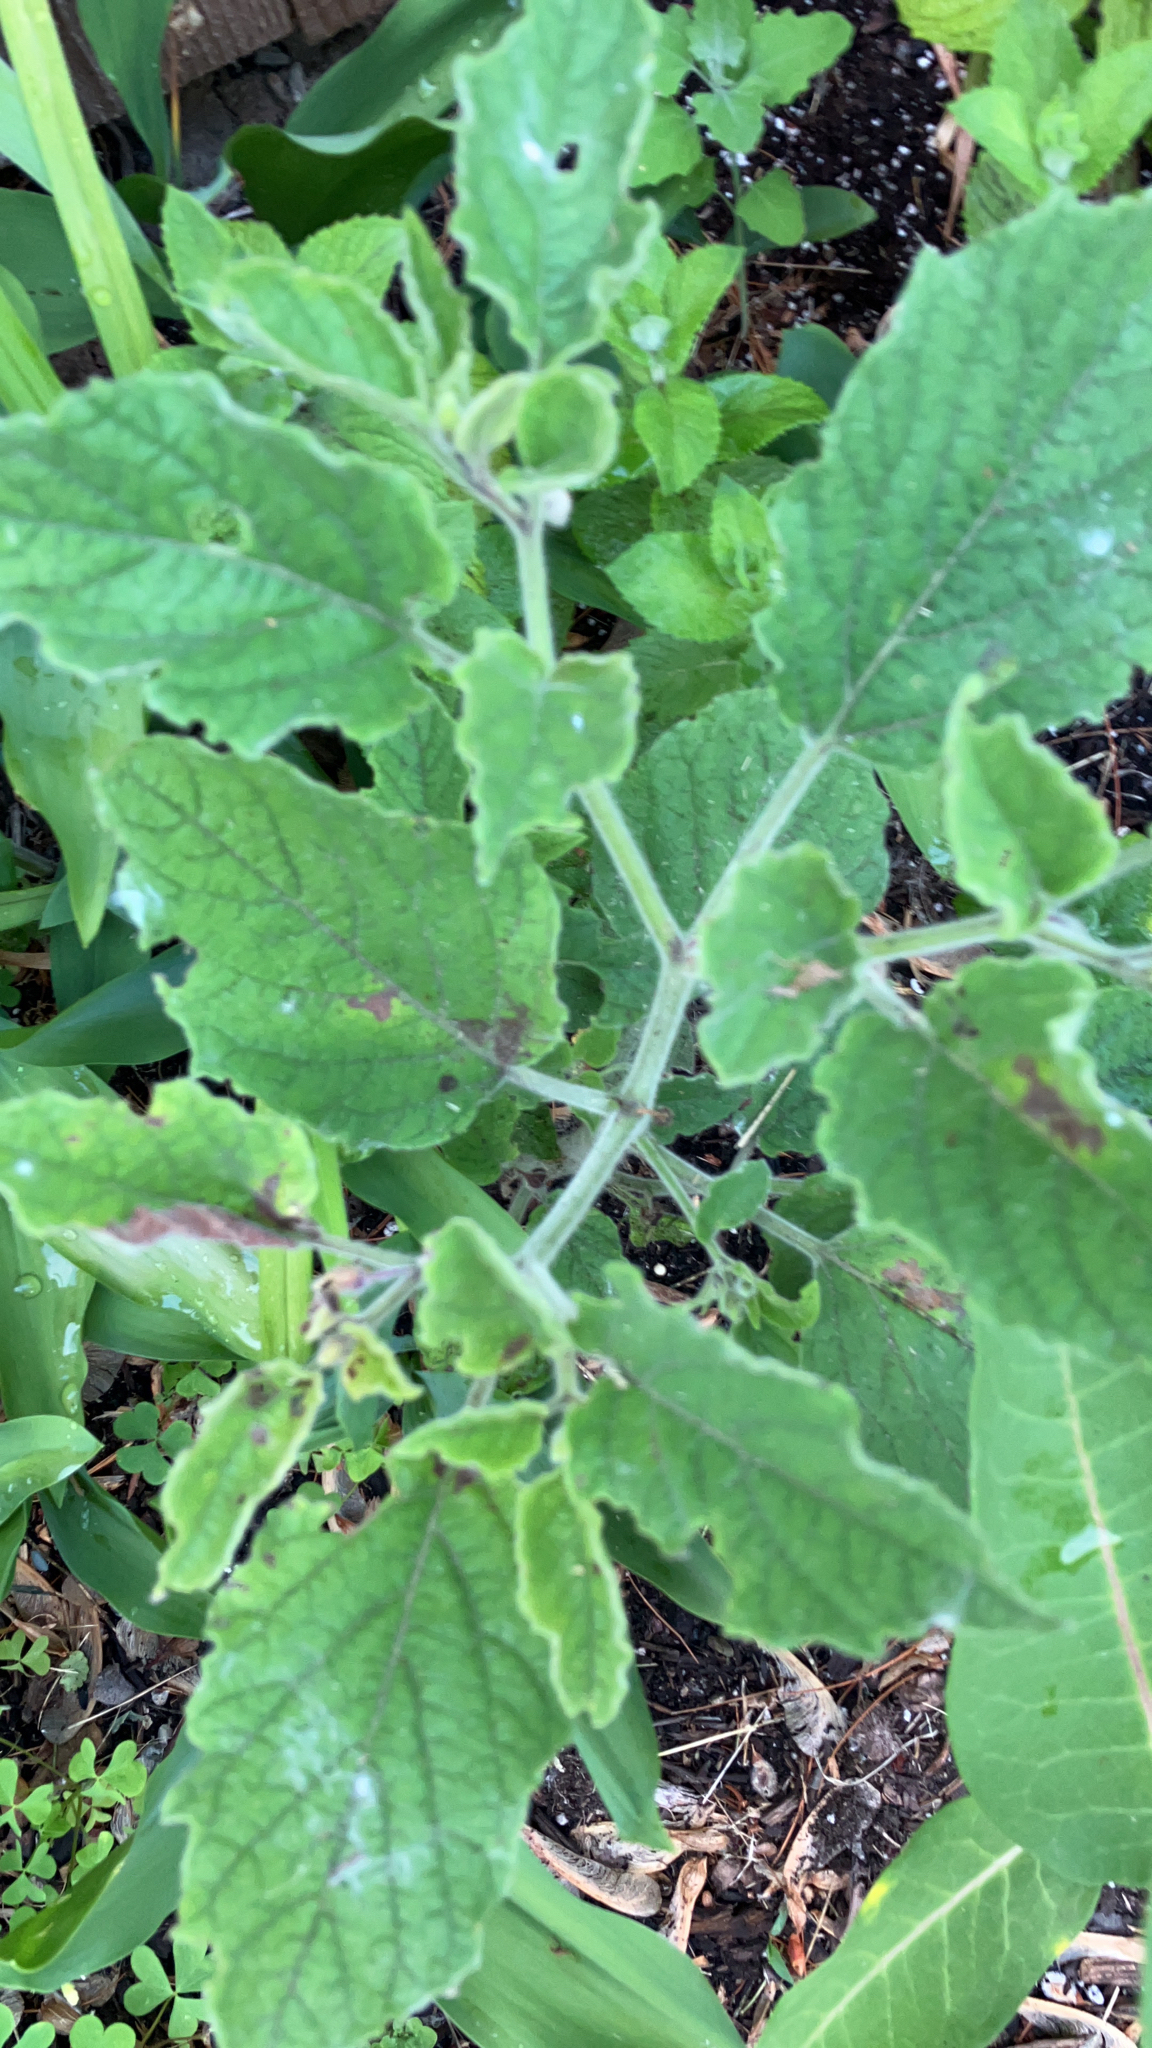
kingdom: Plantae
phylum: Tracheophyta
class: Magnoliopsida
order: Solanales
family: Solanaceae
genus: Physalis
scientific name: Physalis heterophylla
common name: Clammy ground-cherry
